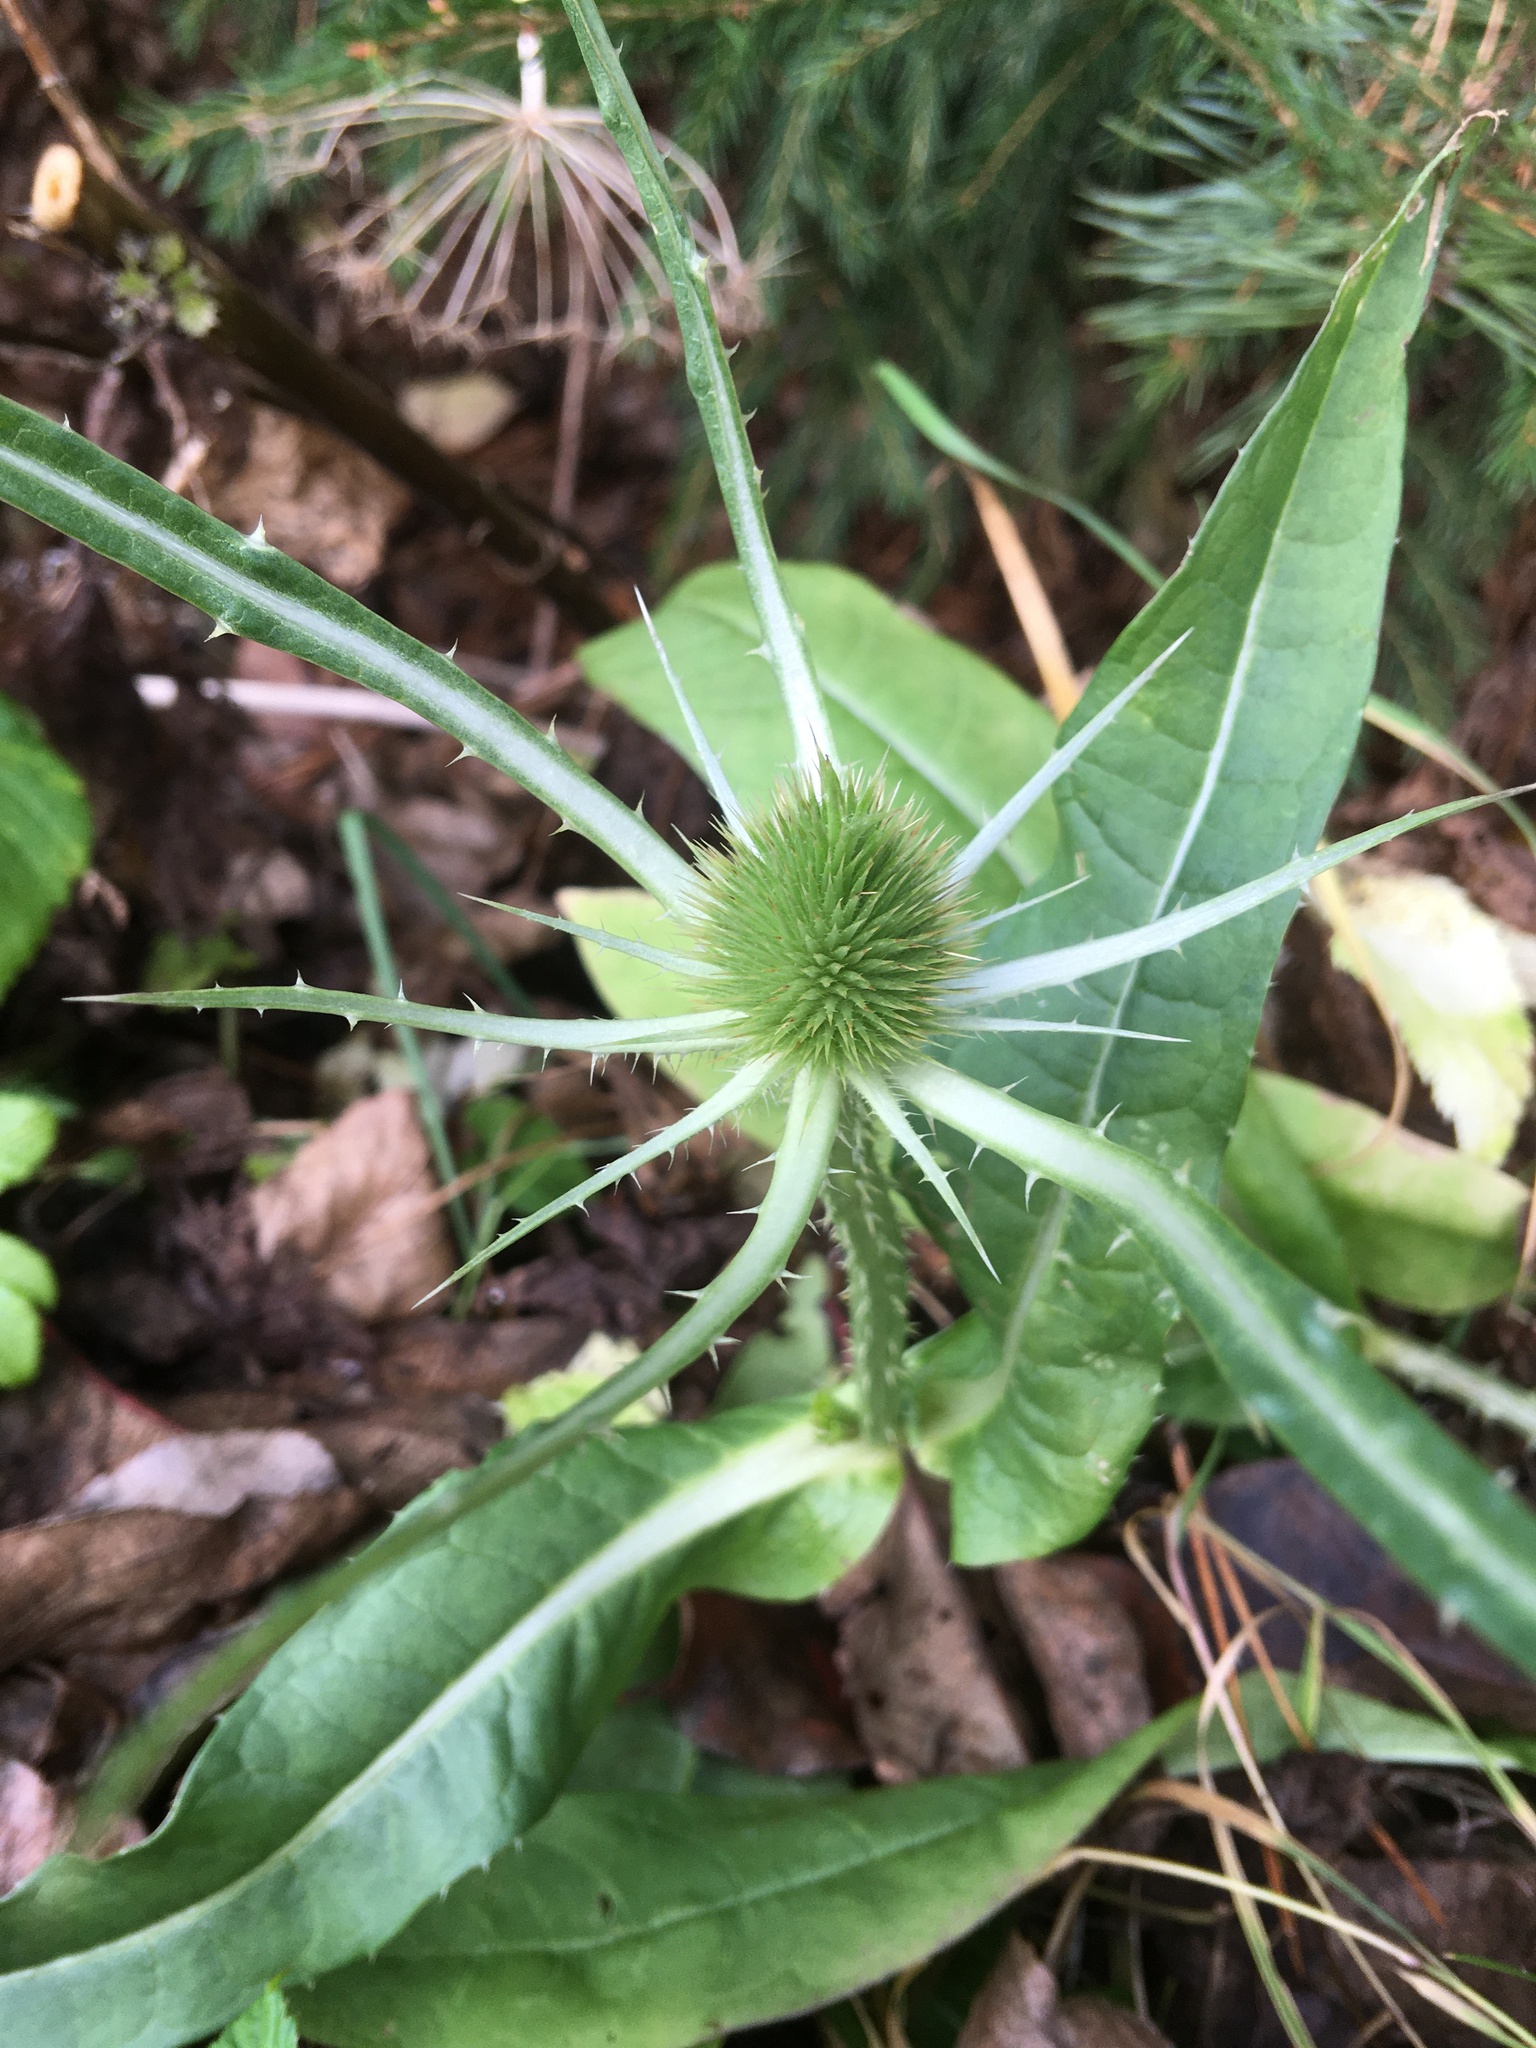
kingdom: Plantae
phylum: Tracheophyta
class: Magnoliopsida
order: Dipsacales
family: Caprifoliaceae
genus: Dipsacus
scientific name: Dipsacus fullonum
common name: Teasel
